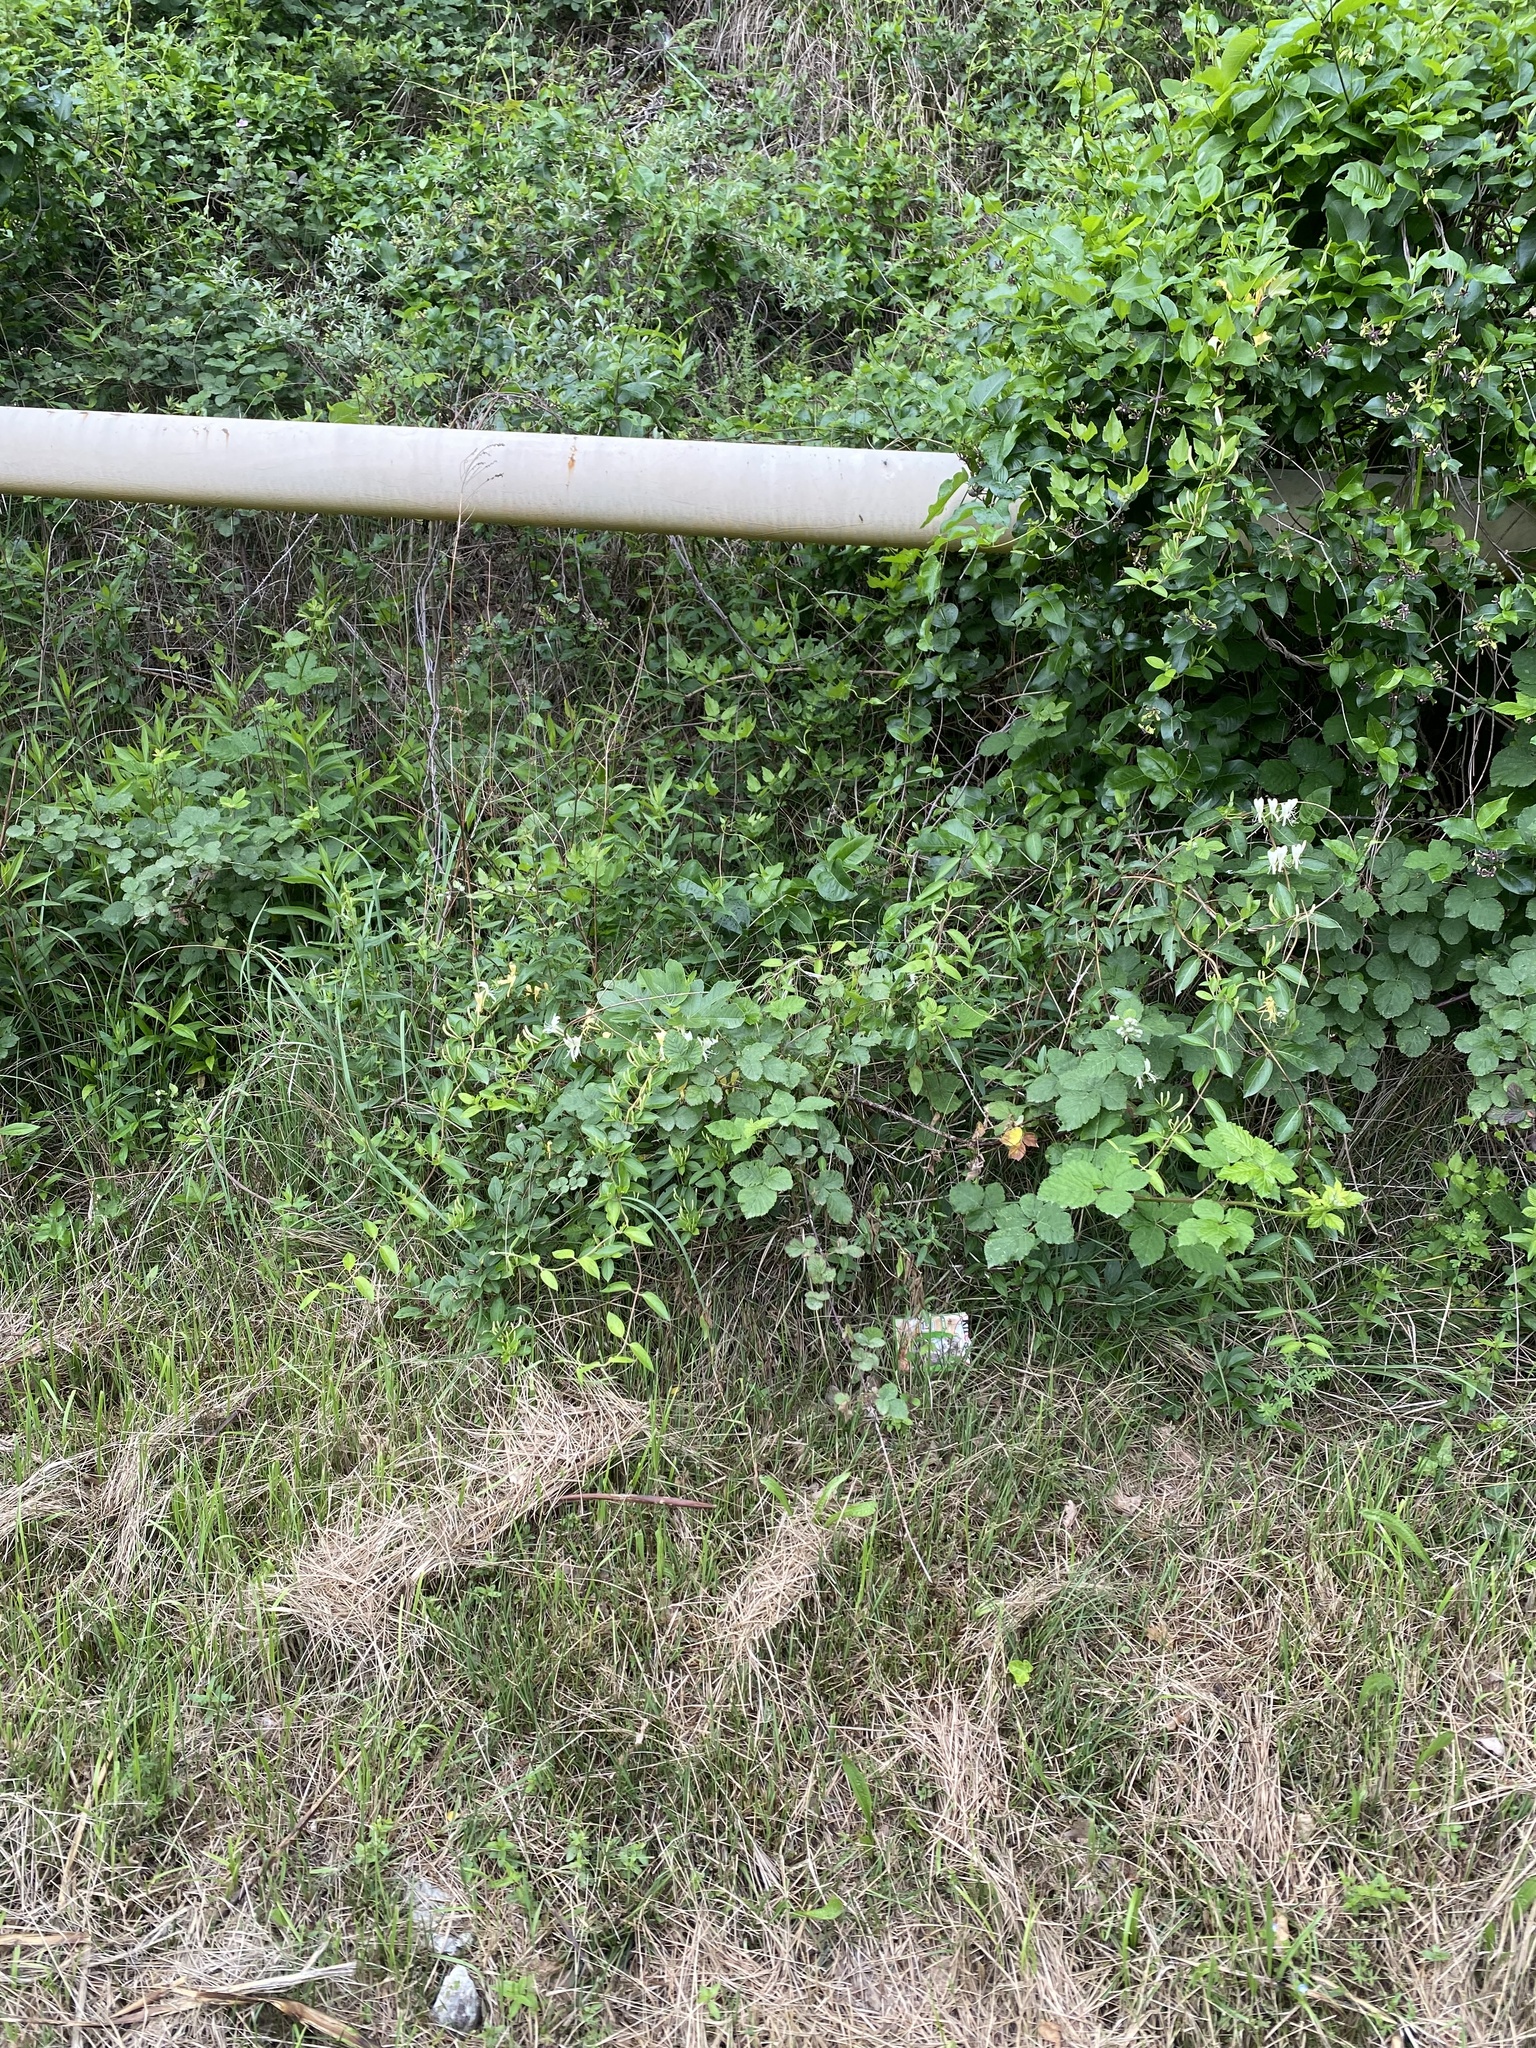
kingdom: Plantae
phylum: Tracheophyta
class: Magnoliopsida
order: Dipsacales
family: Caprifoliaceae
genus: Lonicera
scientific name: Lonicera japonica
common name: Japanese honeysuckle
